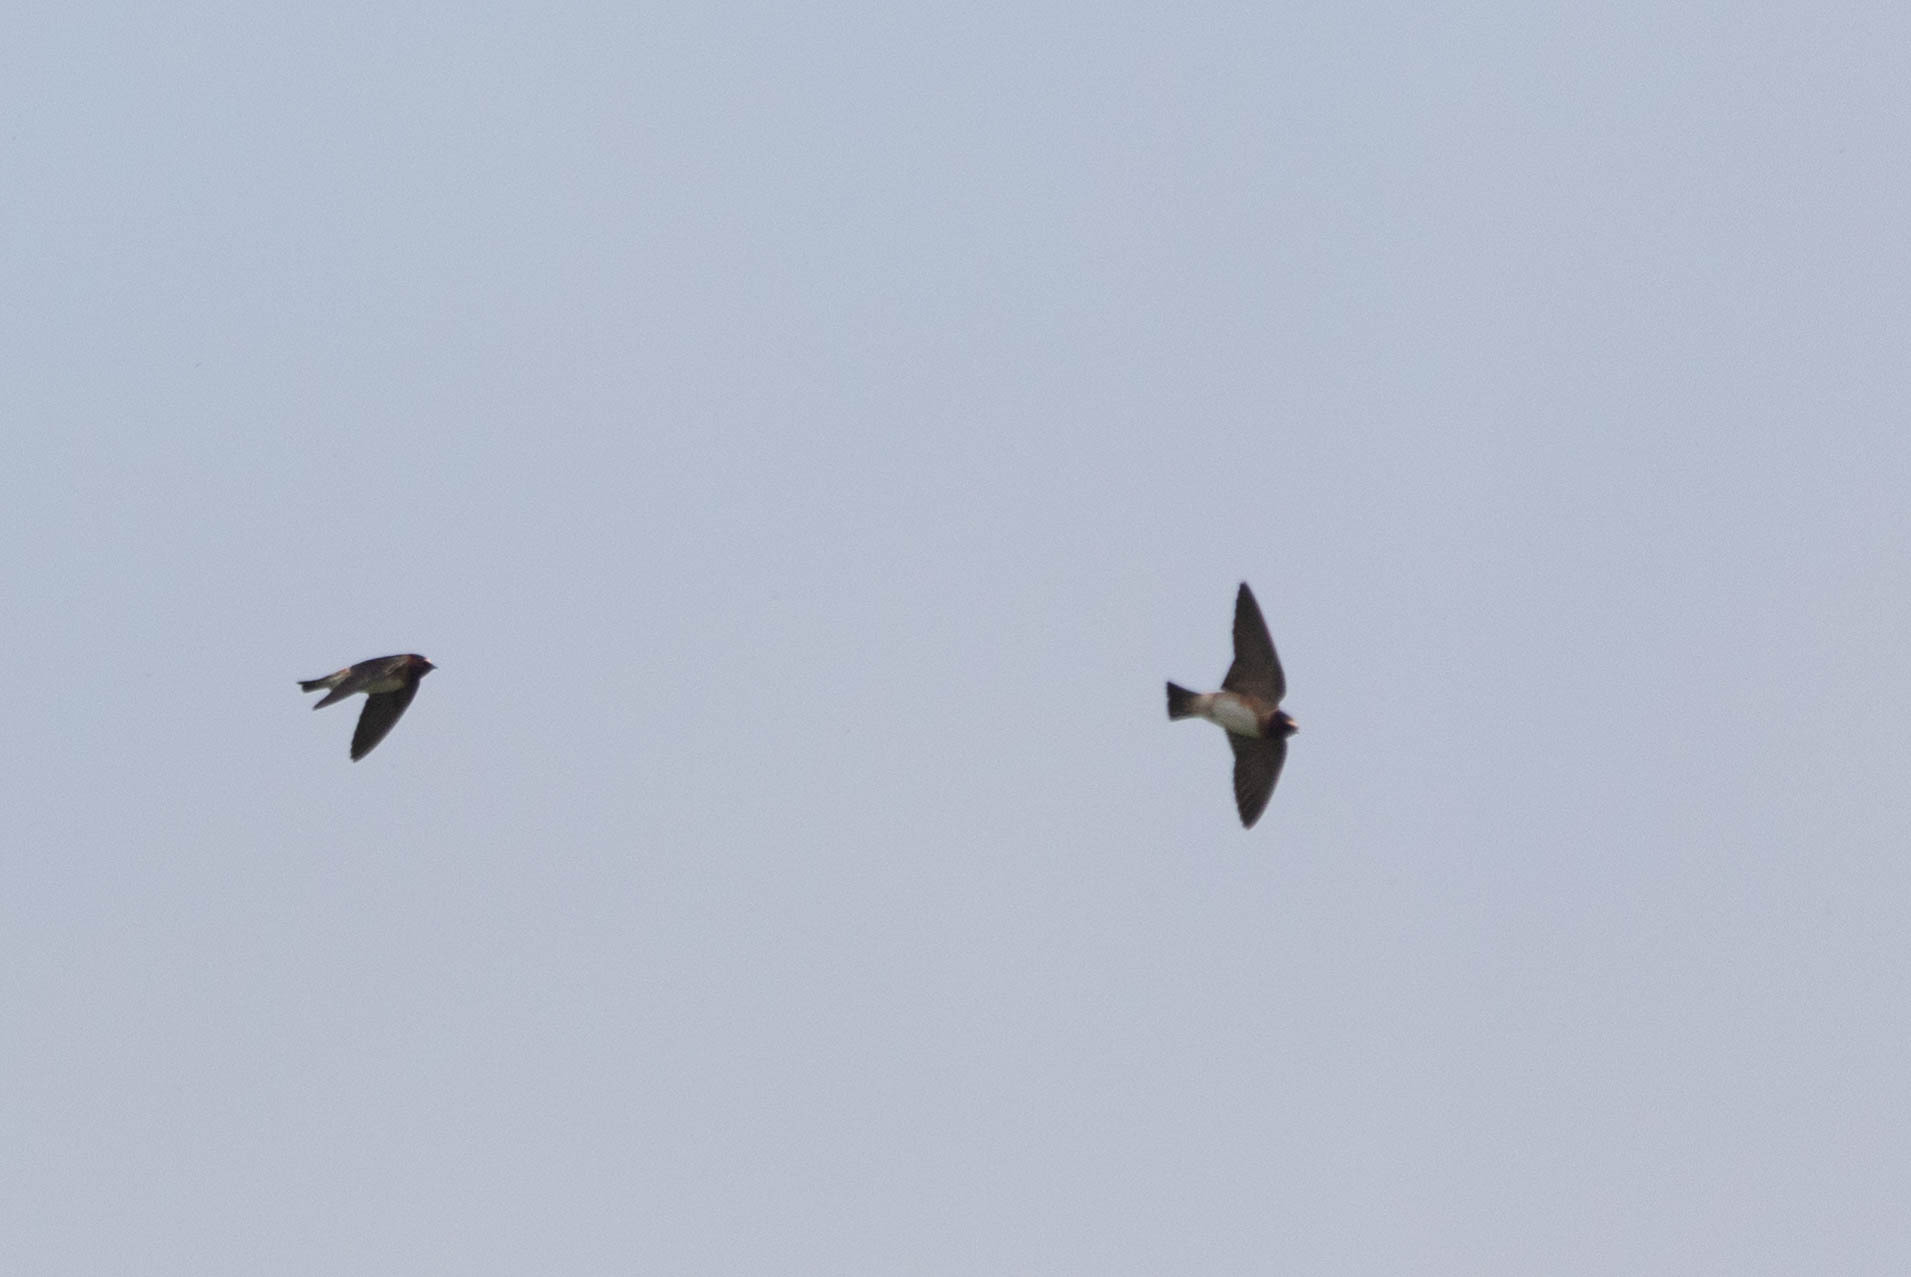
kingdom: Animalia
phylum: Chordata
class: Aves
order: Passeriformes
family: Hirundinidae
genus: Petrochelidon
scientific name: Petrochelidon pyrrhonota
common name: American cliff swallow
